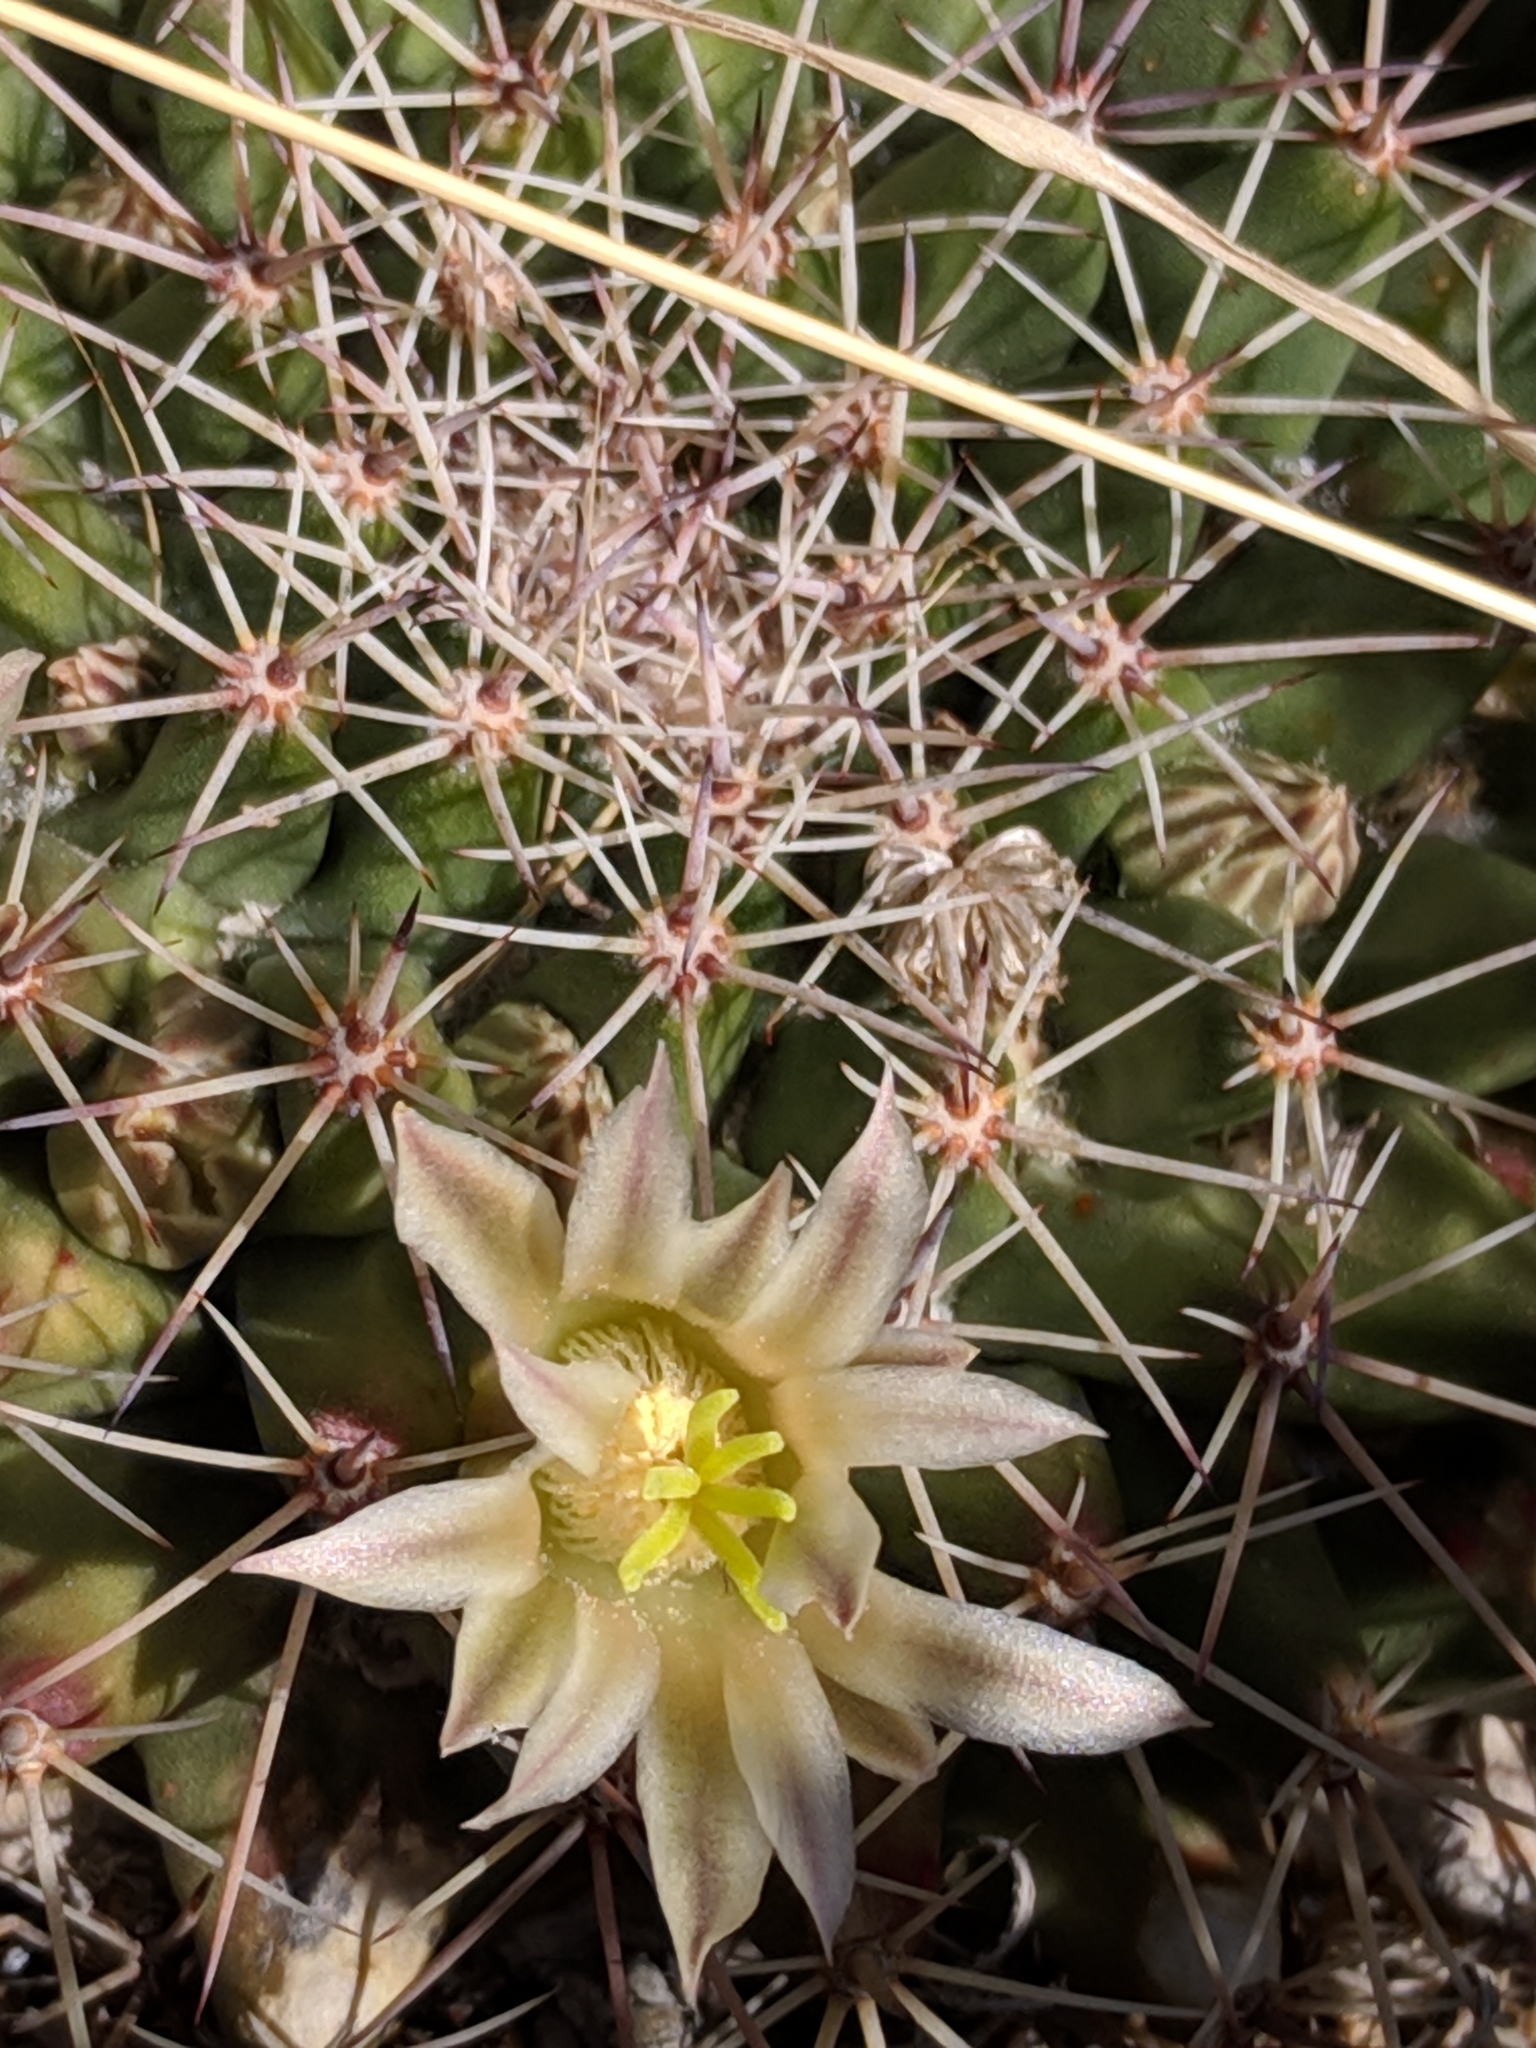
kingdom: Plantae
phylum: Tracheophyta
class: Magnoliopsida
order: Caryophyllales
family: Cactaceae
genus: Mammillaria
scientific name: Mammillaria heyderi
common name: Little nipple cactus
